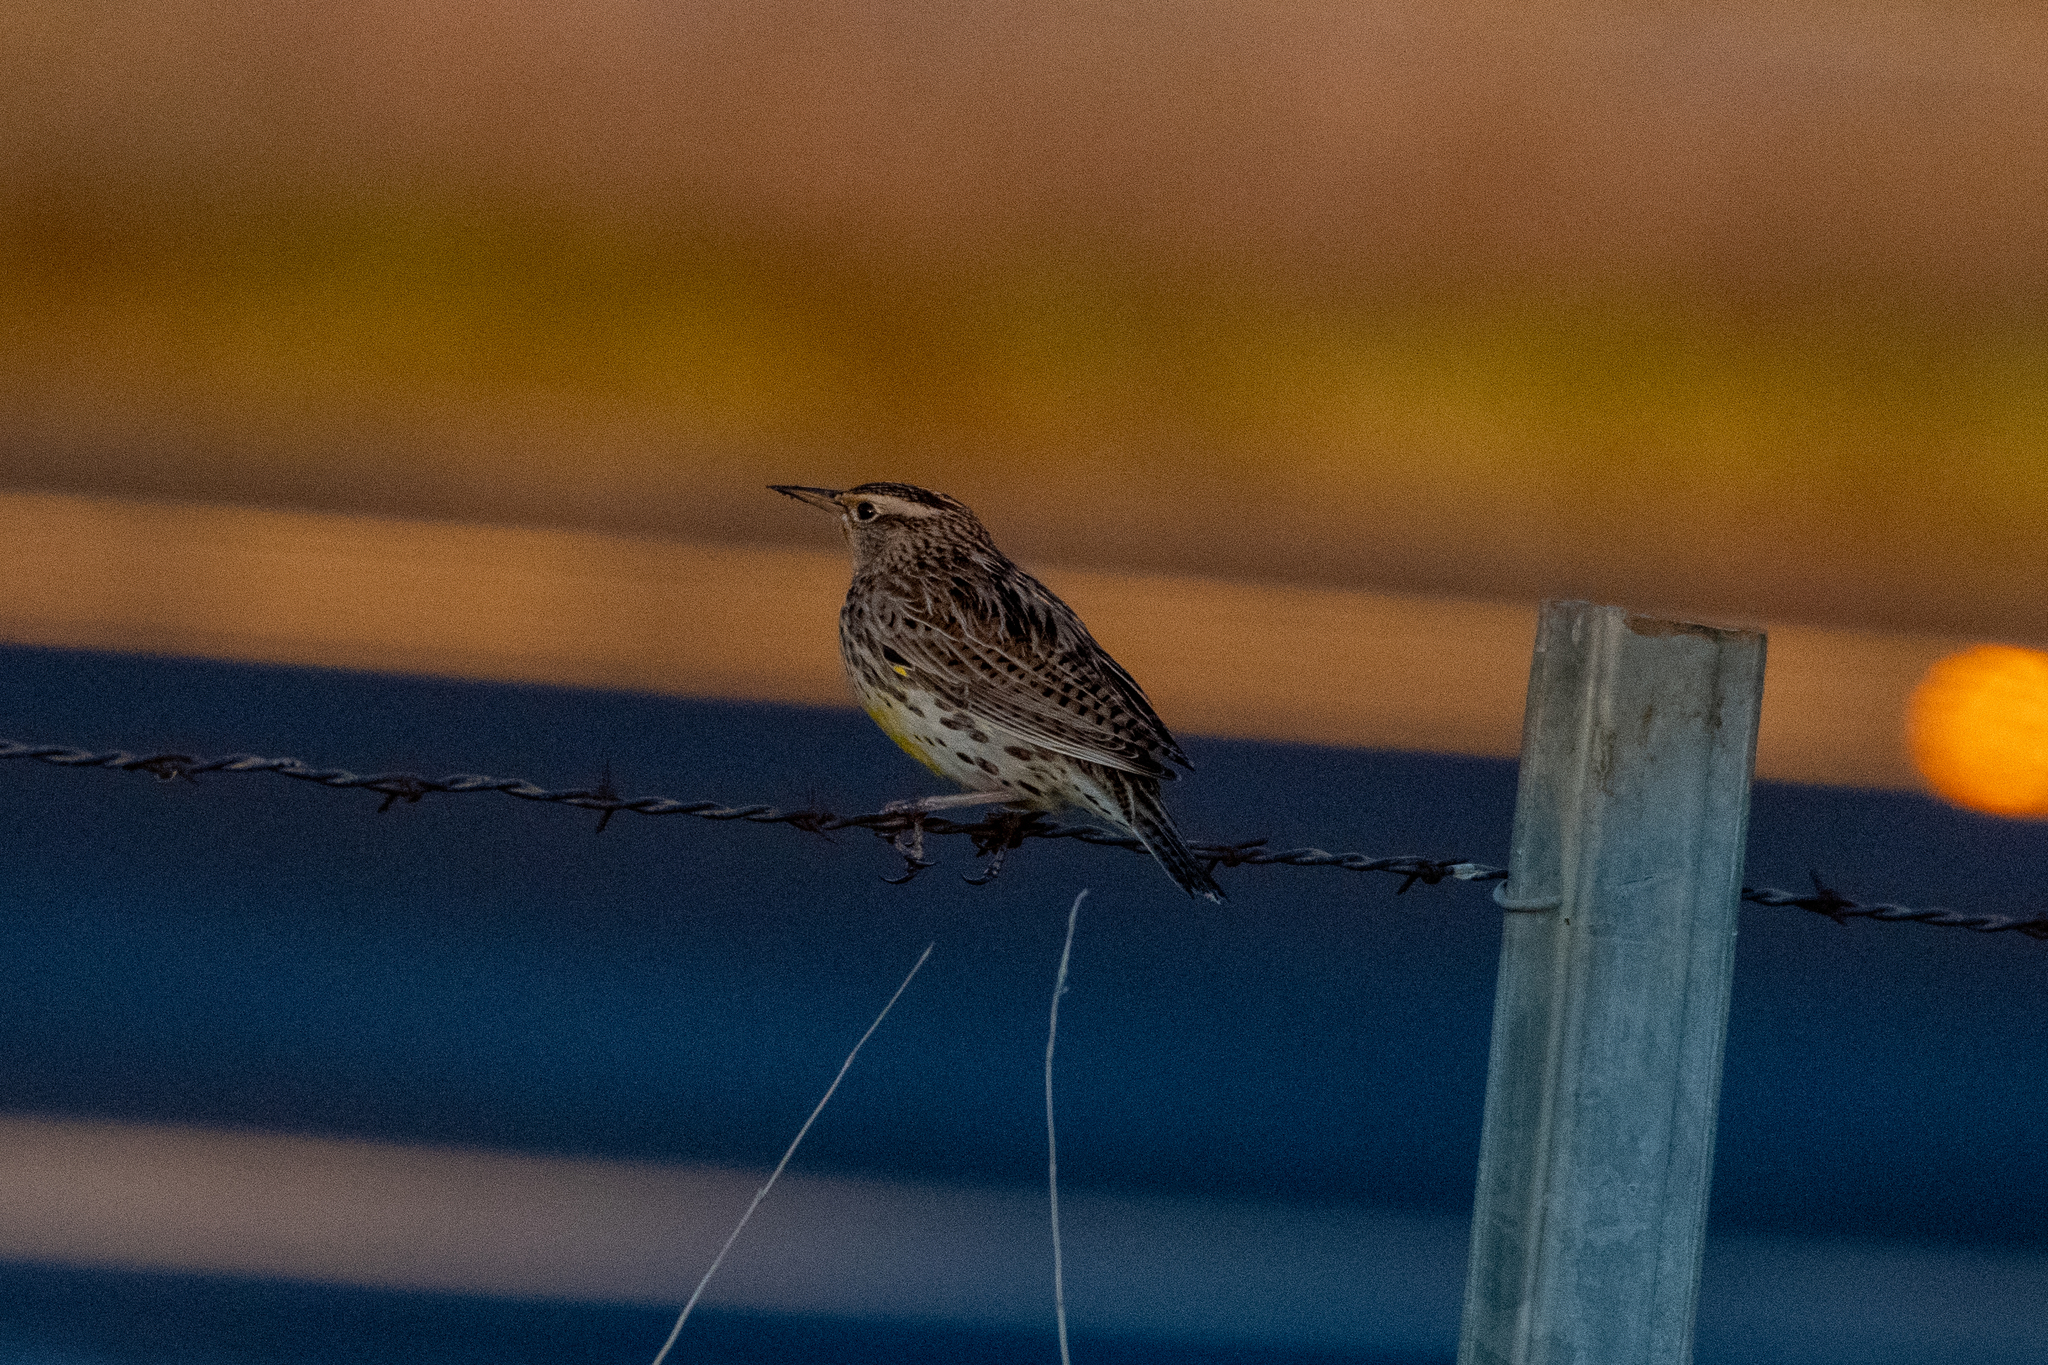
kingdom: Animalia
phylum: Chordata
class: Aves
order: Passeriformes
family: Icteridae
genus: Sturnella
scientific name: Sturnella neglecta
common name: Western meadowlark
